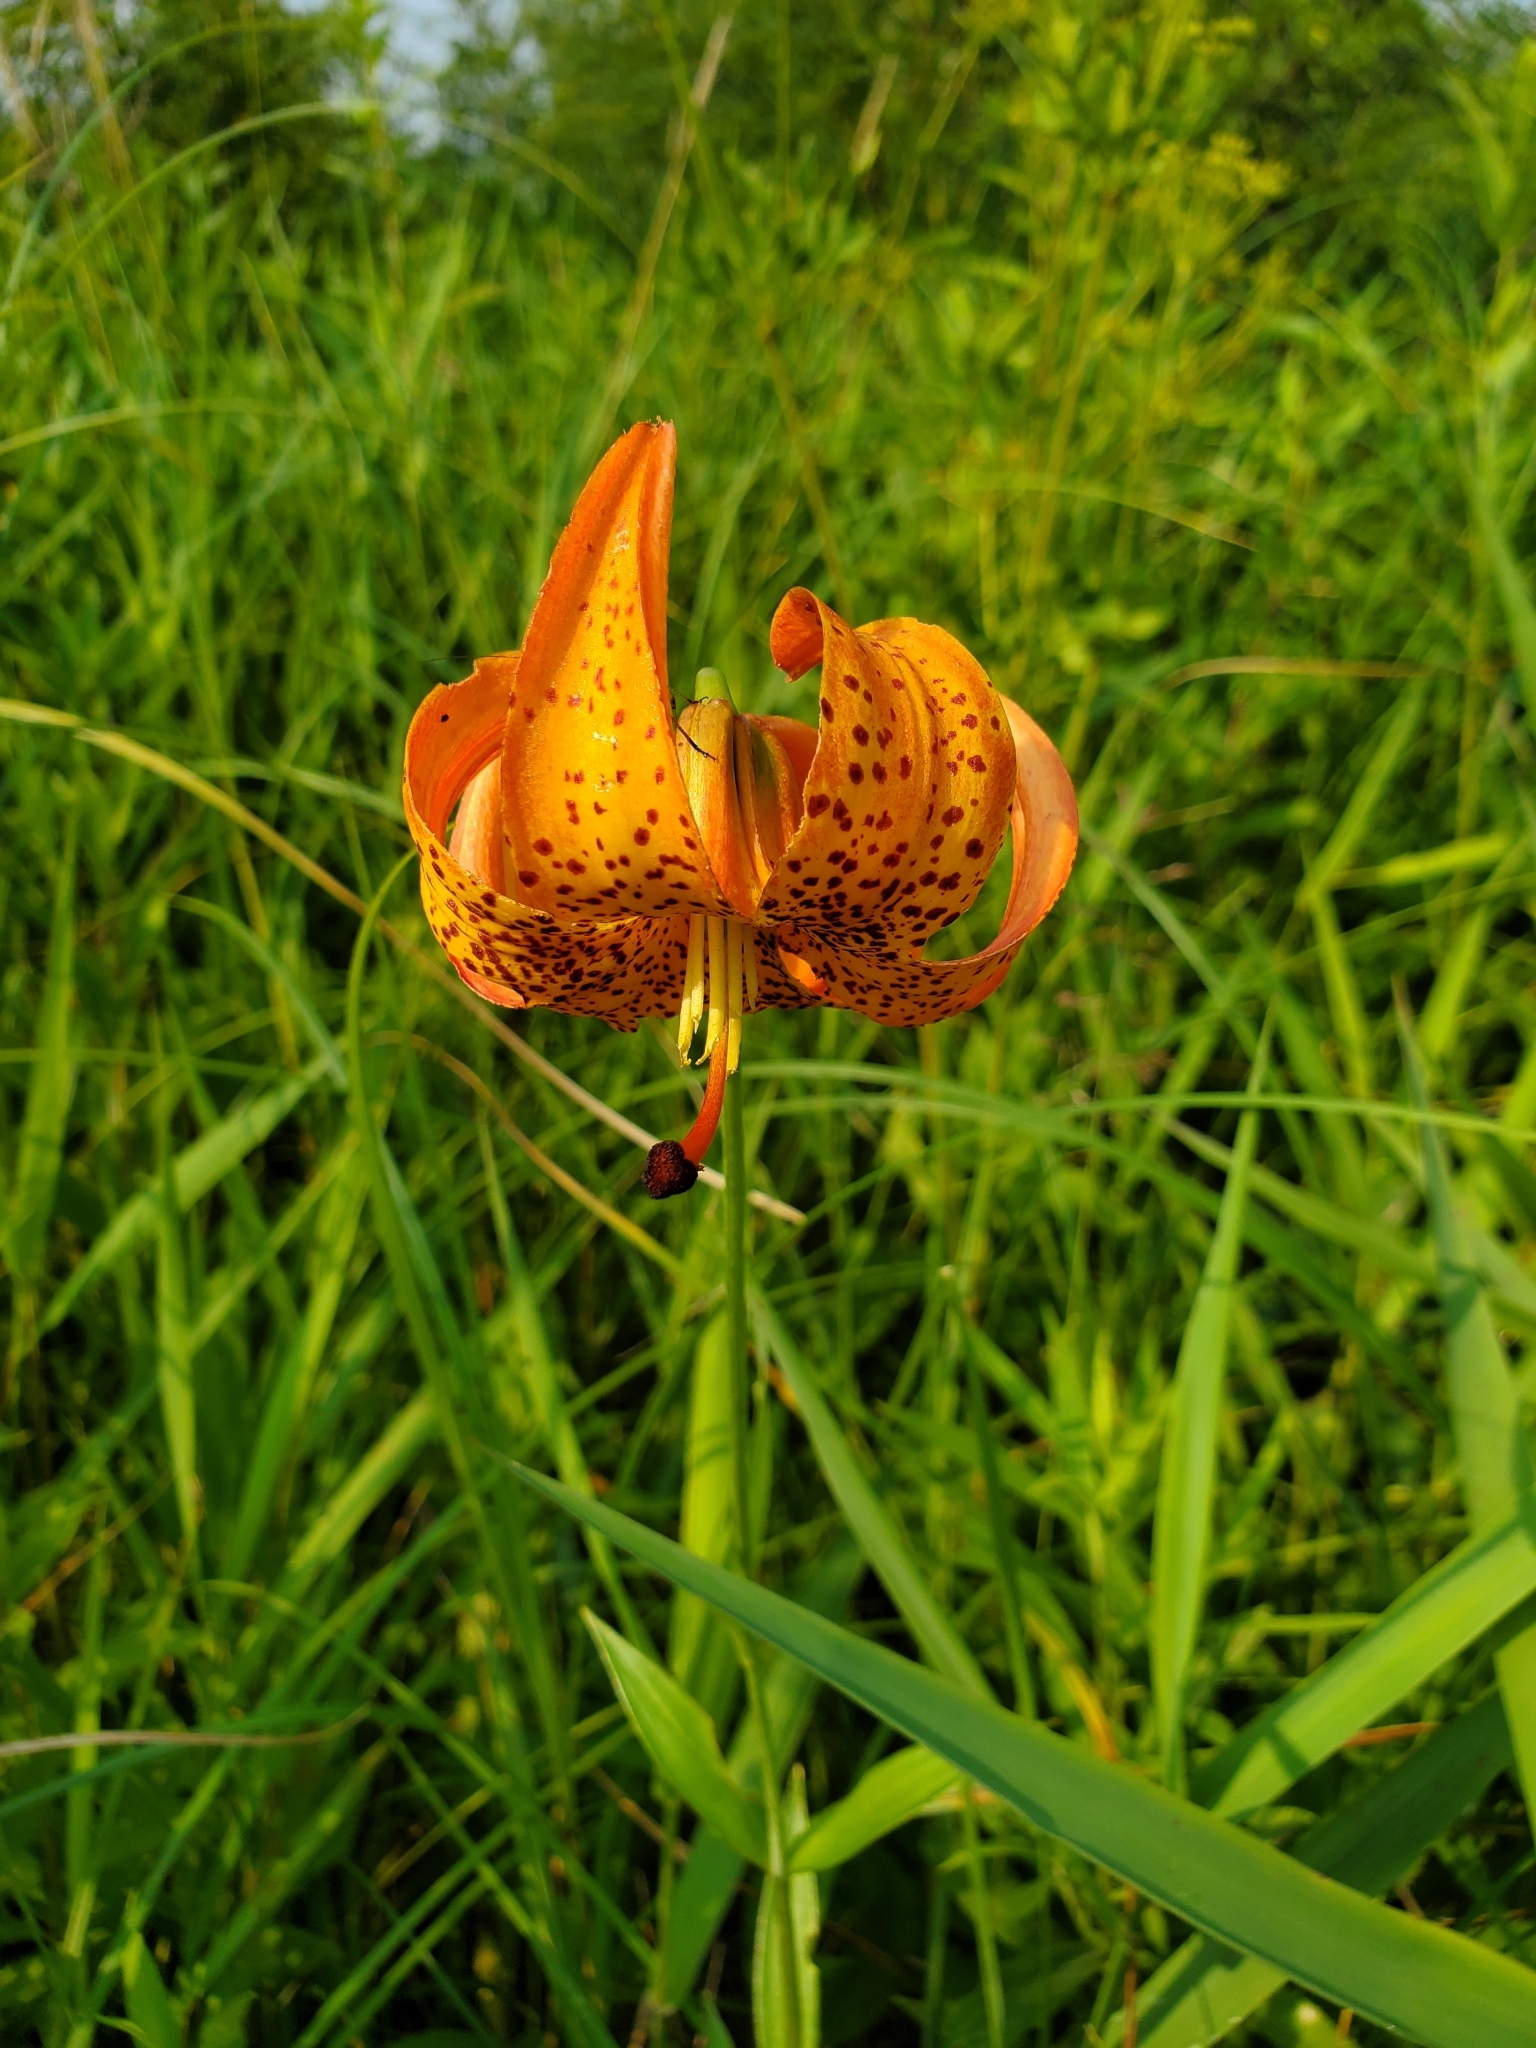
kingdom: Plantae
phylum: Tracheophyta
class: Liliopsida
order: Liliales
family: Liliaceae
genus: Lilium
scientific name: Lilium michiganense
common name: Michigan lily
